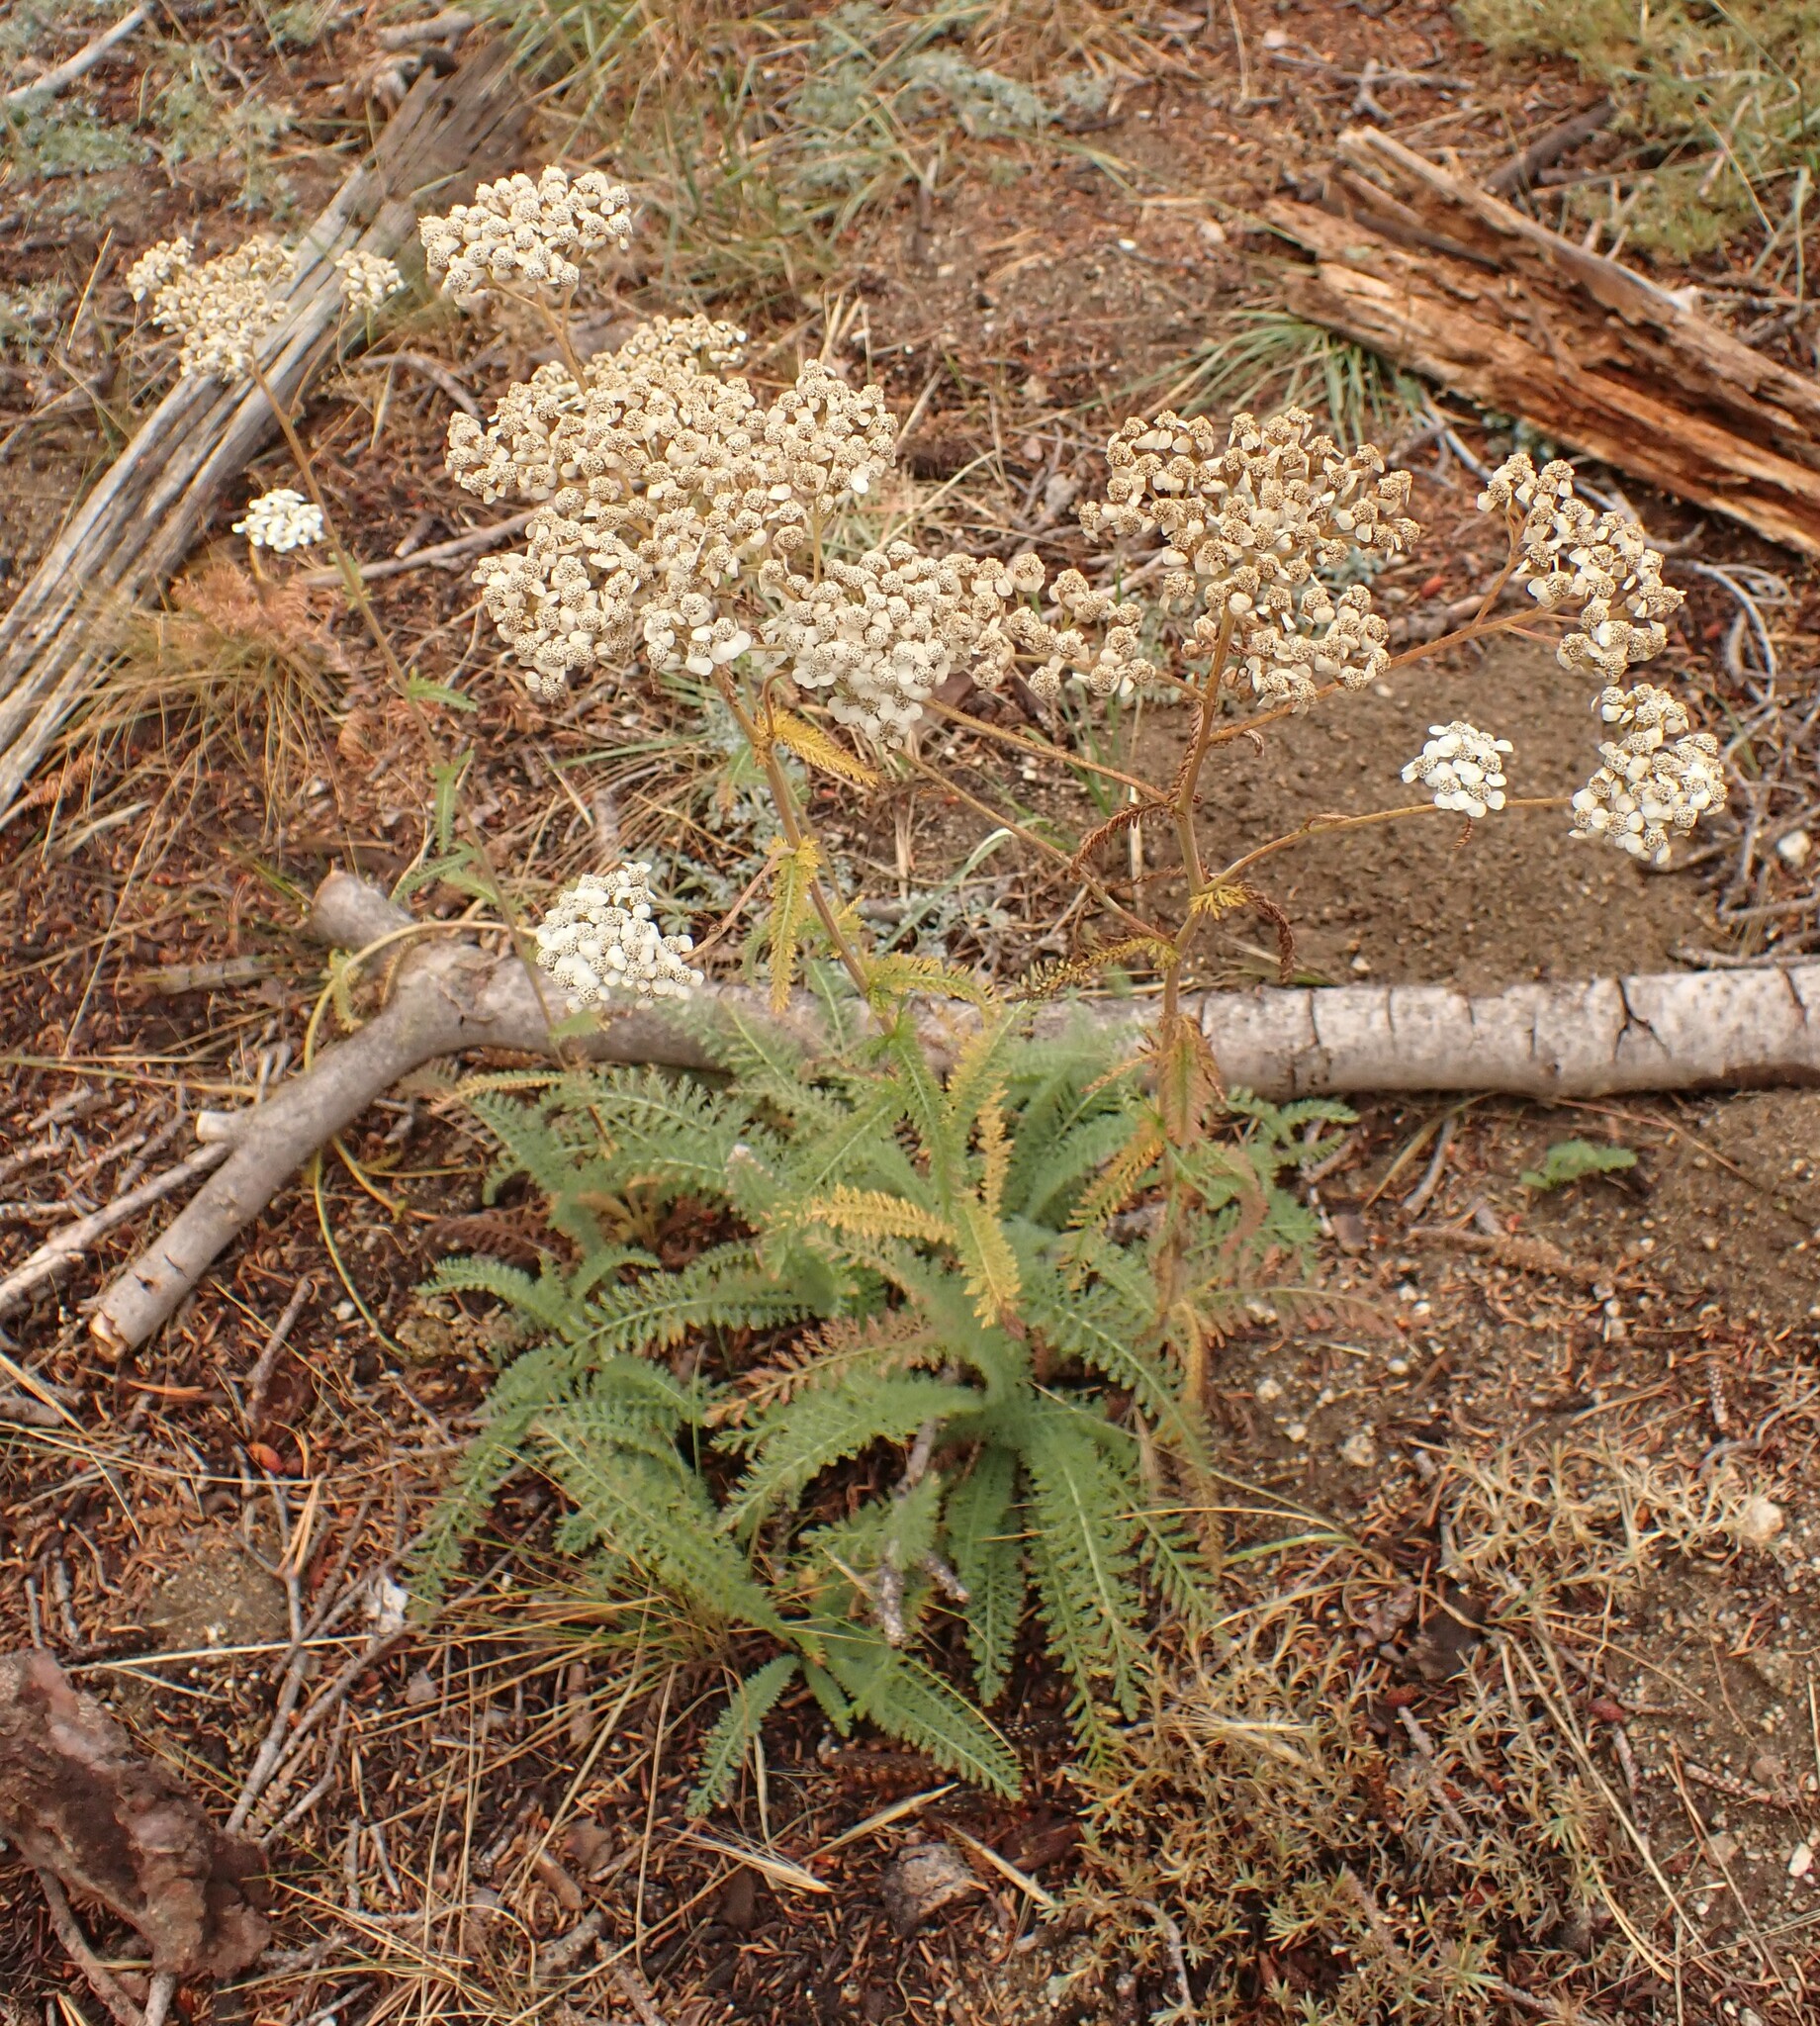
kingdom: Plantae
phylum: Tracheophyta
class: Magnoliopsida
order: Asterales
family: Asteraceae
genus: Achillea
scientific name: Achillea millefolium
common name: Yarrow
